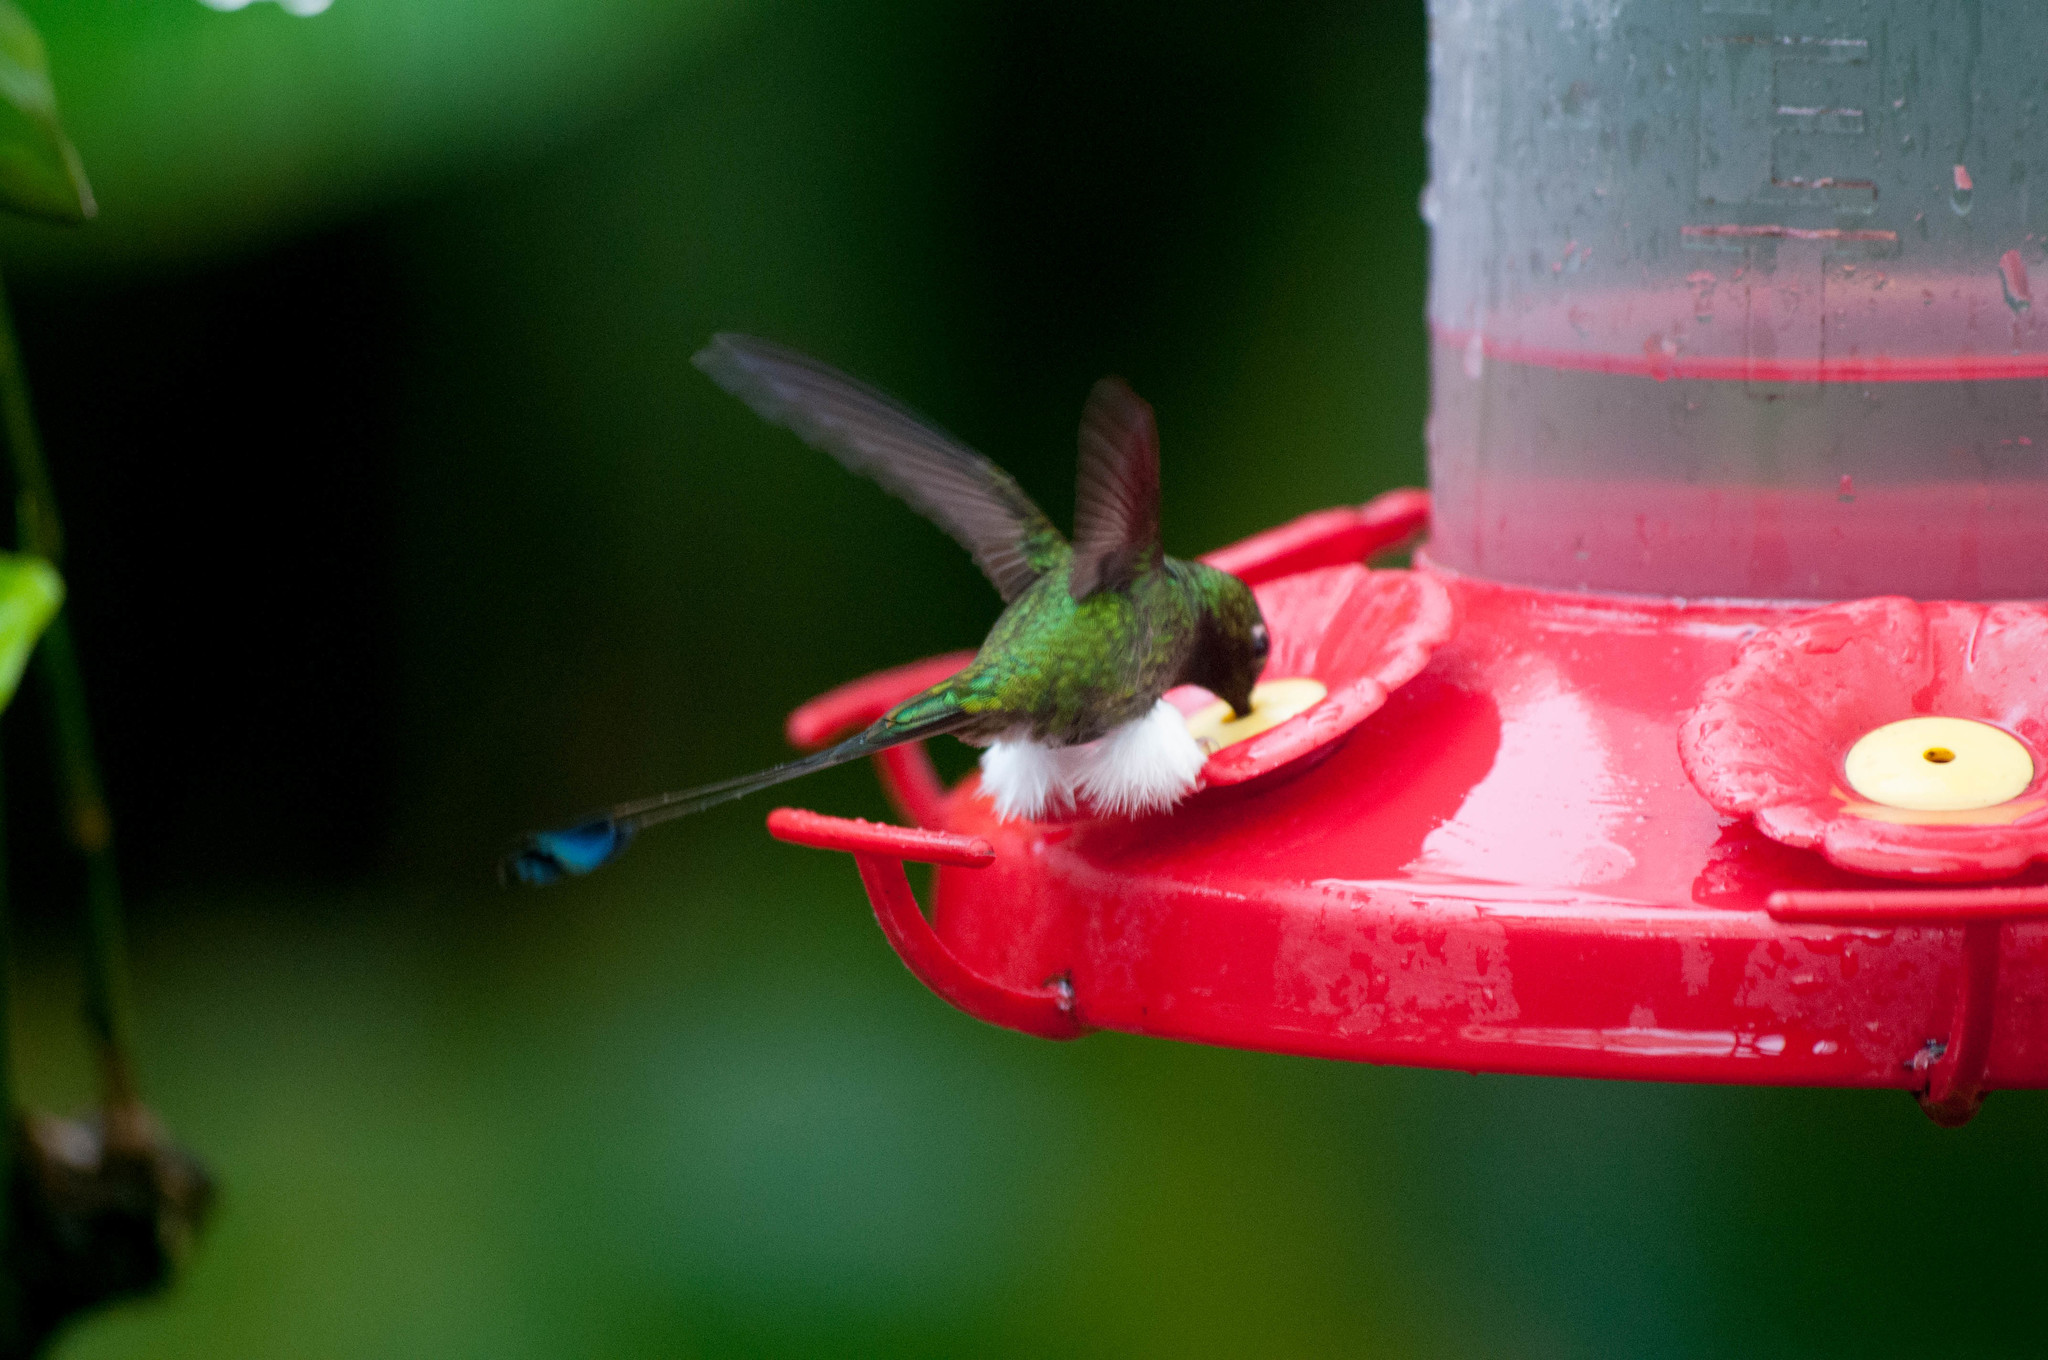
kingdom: Animalia
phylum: Chordata
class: Aves
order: Apodiformes
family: Trochilidae
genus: Ocreatus
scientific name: Ocreatus underwoodii
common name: Booted racket-tail
